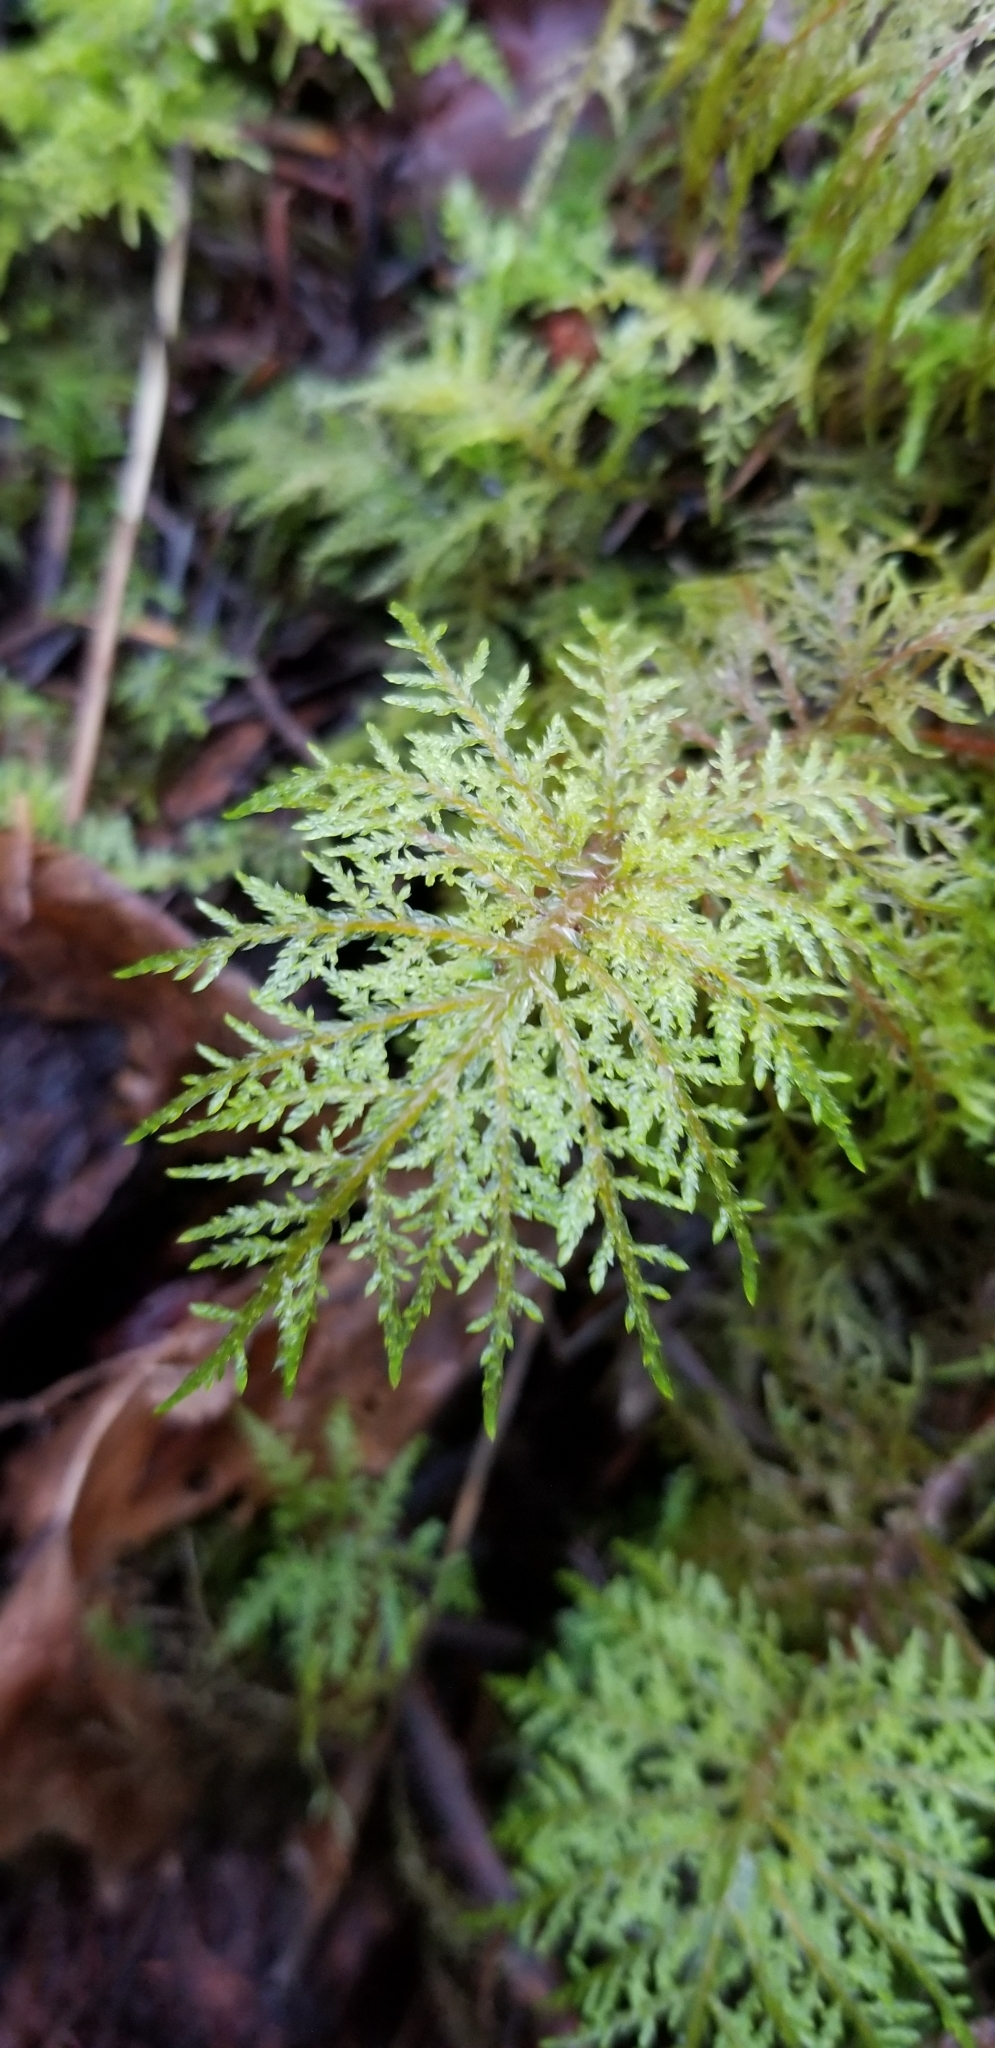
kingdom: Plantae
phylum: Bryophyta
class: Bryopsida
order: Hypnales
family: Hylocomiaceae
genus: Hylocomium
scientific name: Hylocomium splendens
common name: Stairstep moss
